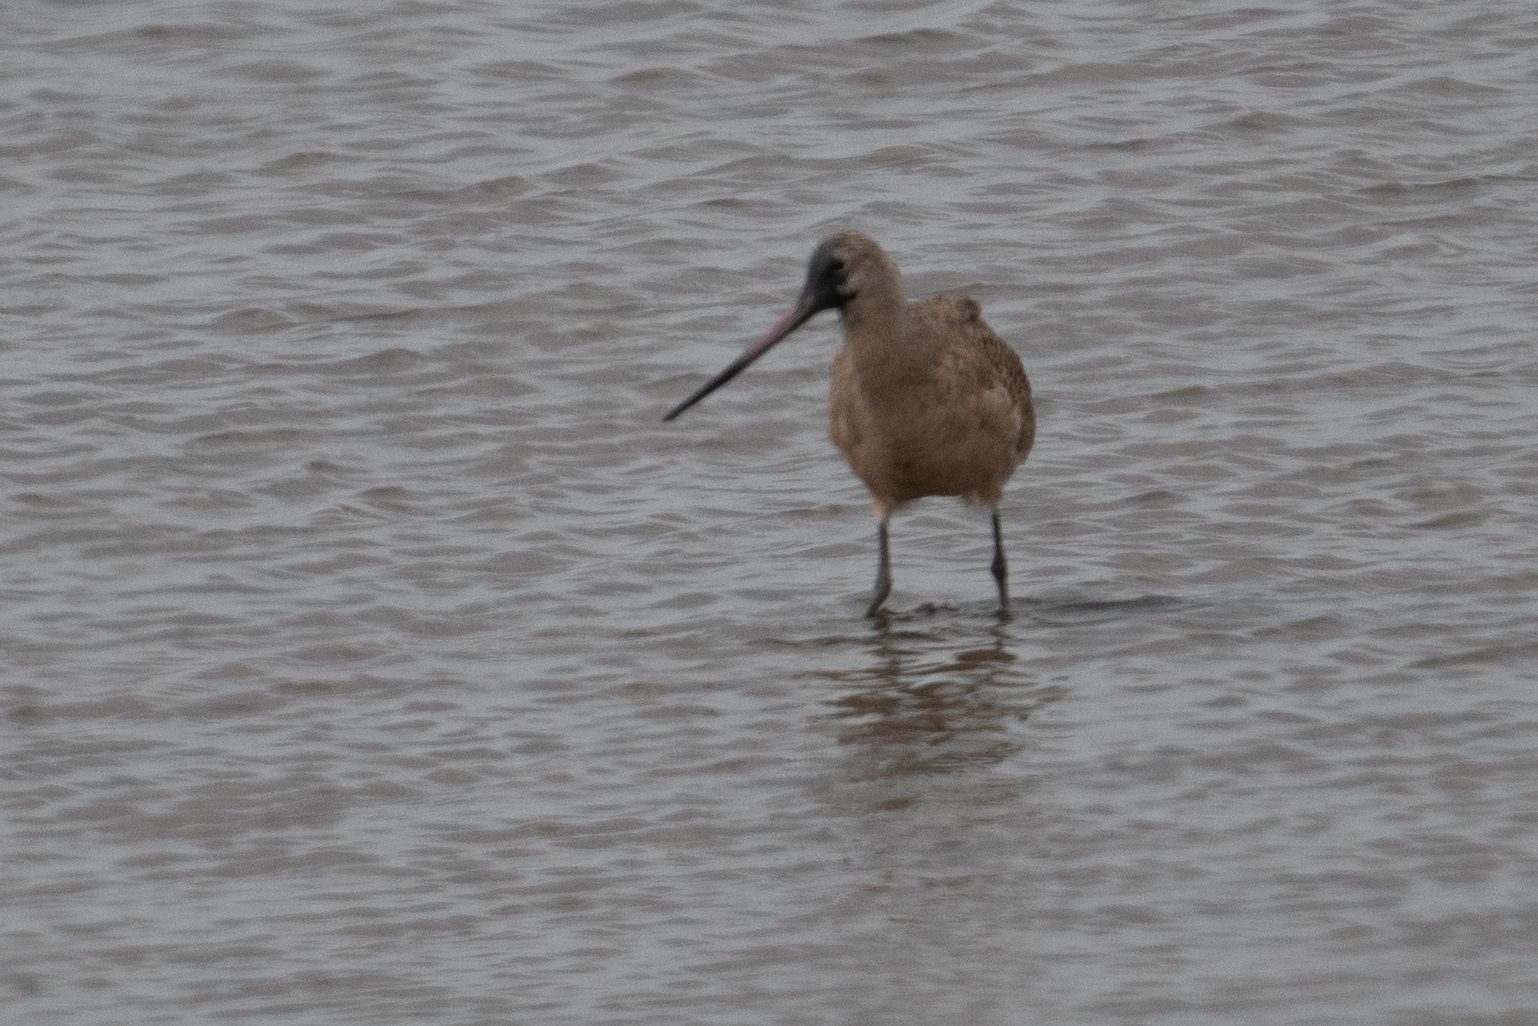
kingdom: Animalia
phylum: Chordata
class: Aves
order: Charadriiformes
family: Scolopacidae
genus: Limosa
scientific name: Limosa fedoa
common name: Marbled godwit
